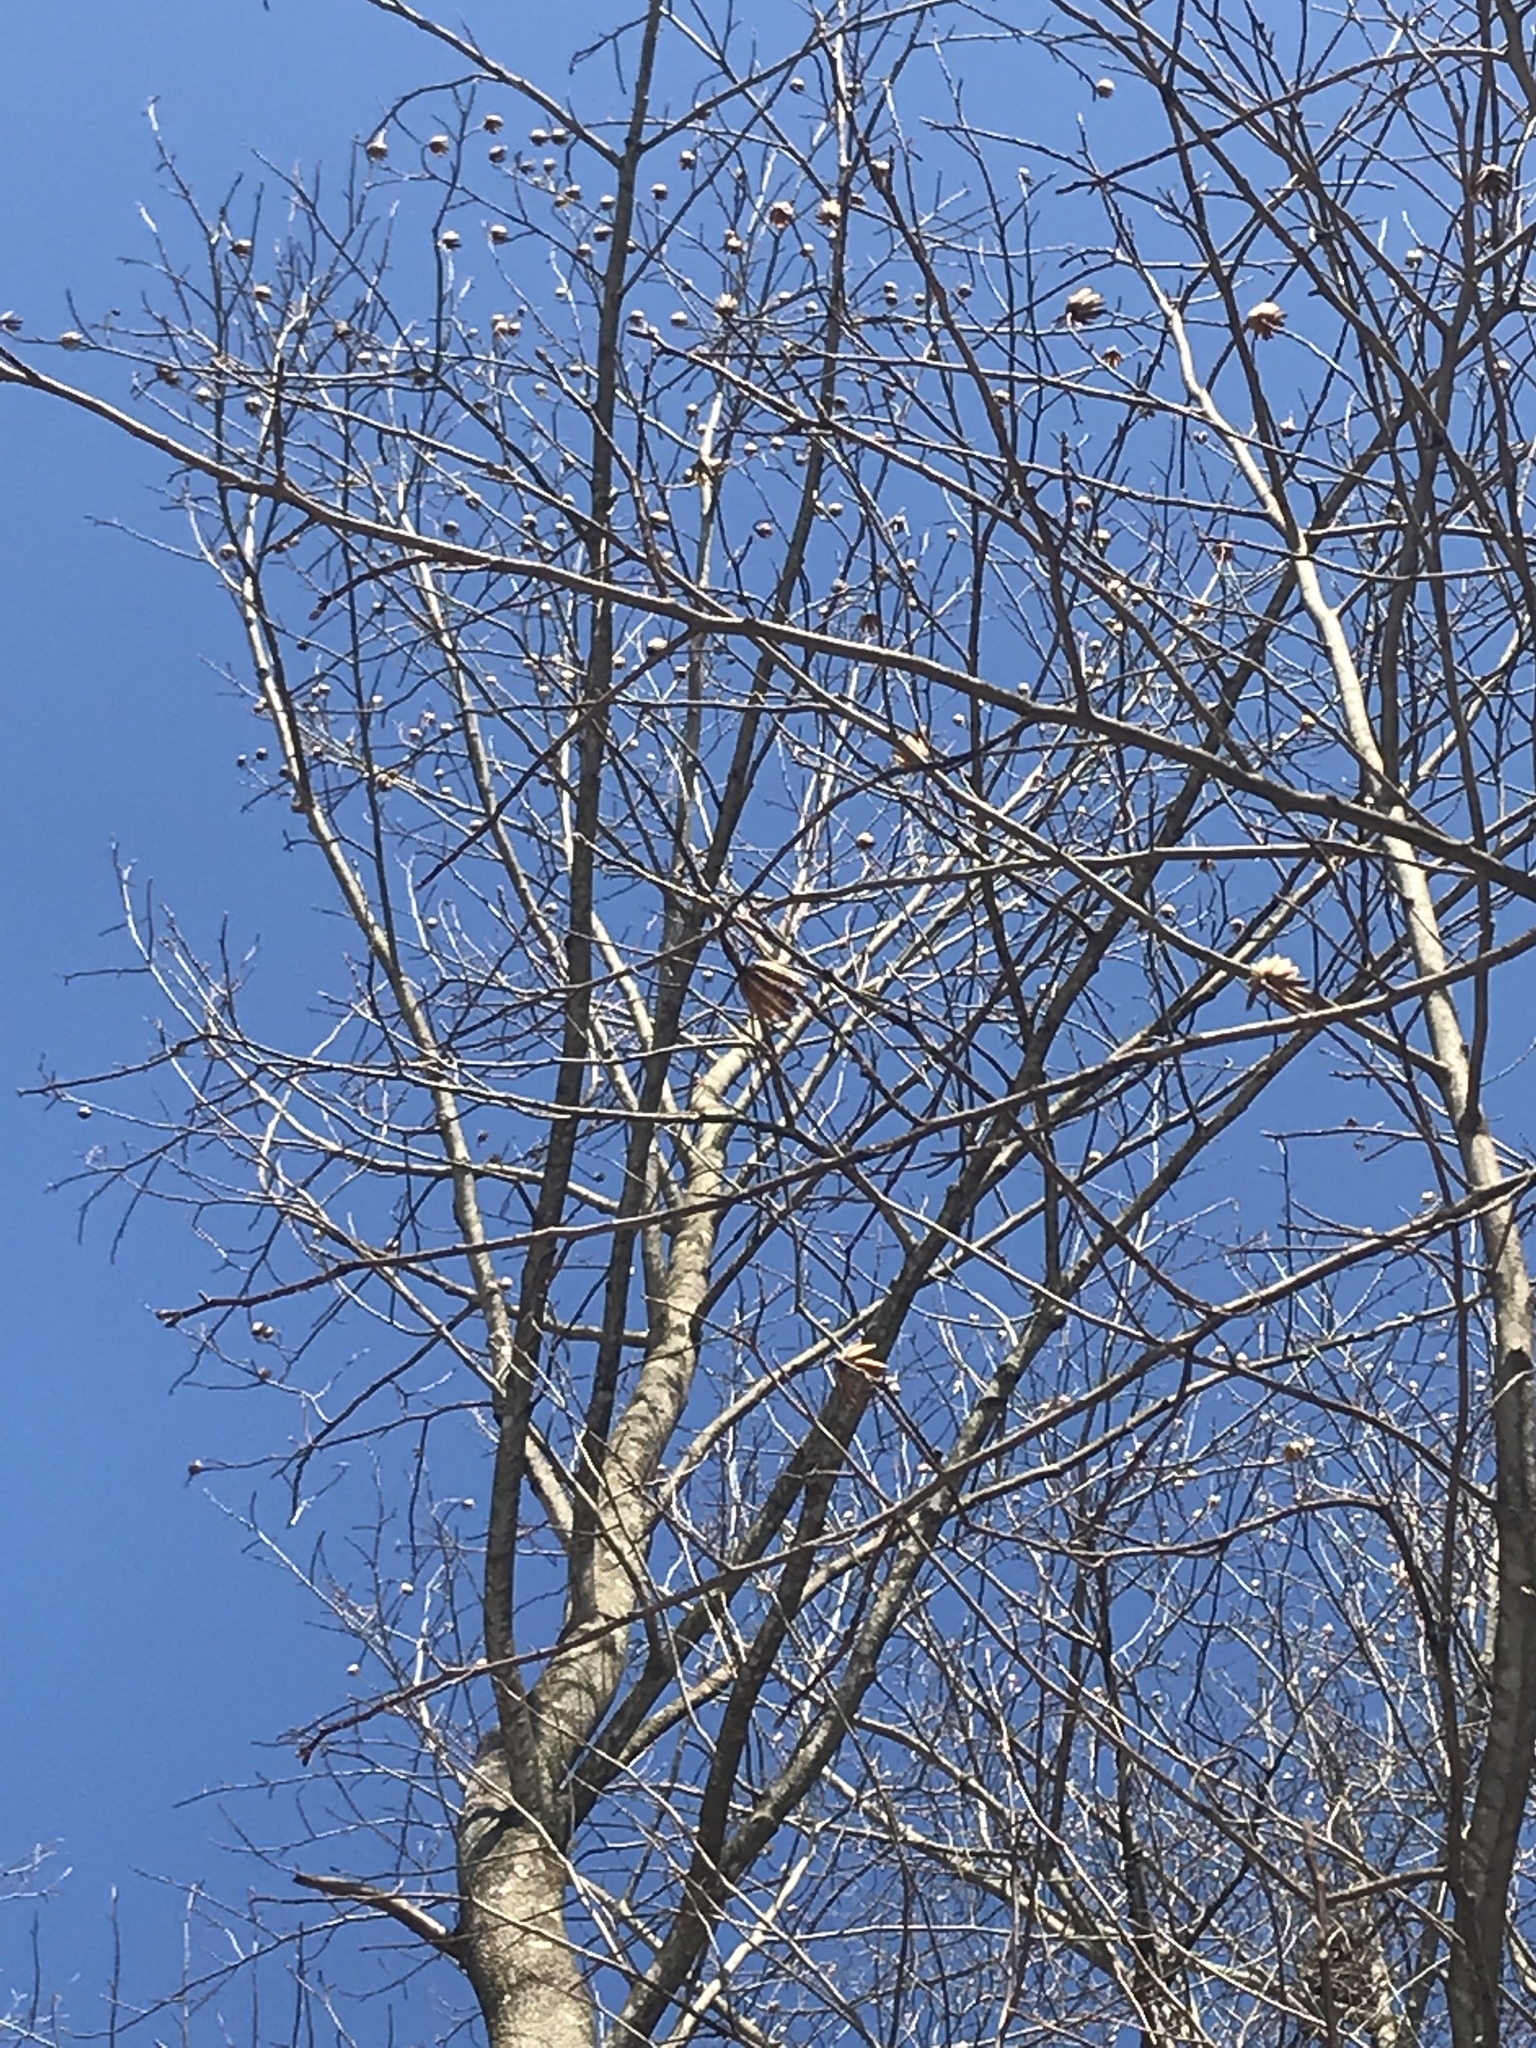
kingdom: Plantae
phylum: Tracheophyta
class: Magnoliopsida
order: Magnoliales
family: Magnoliaceae
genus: Liriodendron
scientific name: Liriodendron tulipifera
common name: Tulip tree
